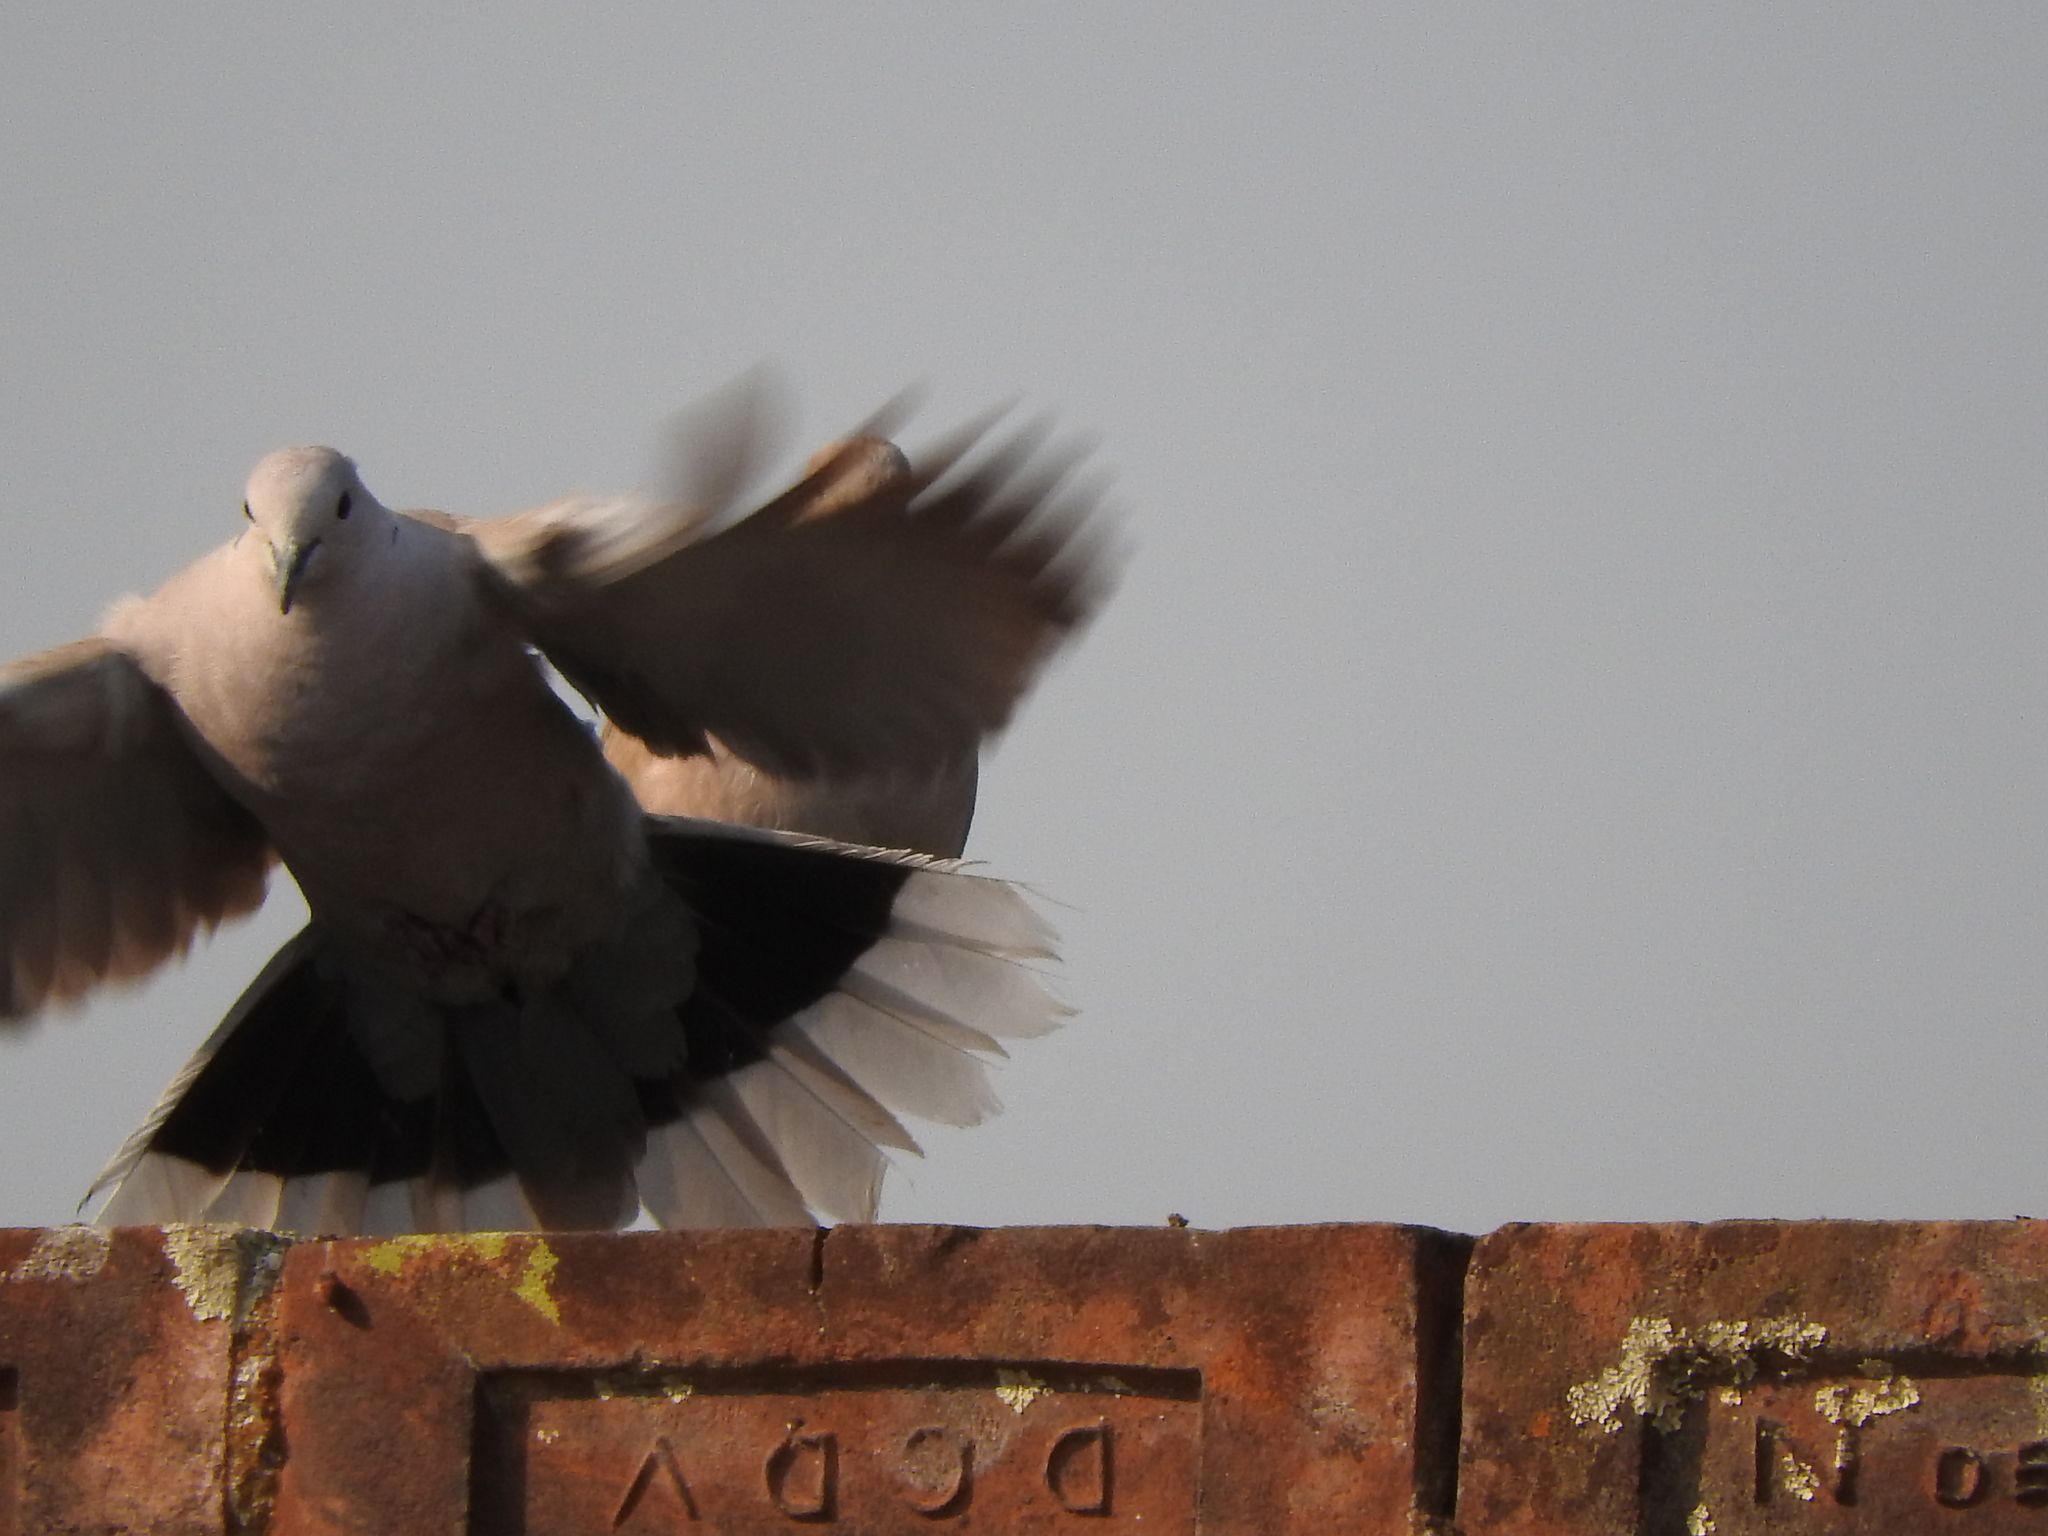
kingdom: Animalia
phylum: Chordata
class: Aves
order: Columbiformes
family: Columbidae
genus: Streptopelia
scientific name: Streptopelia decaocto
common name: Eurasian collared dove
